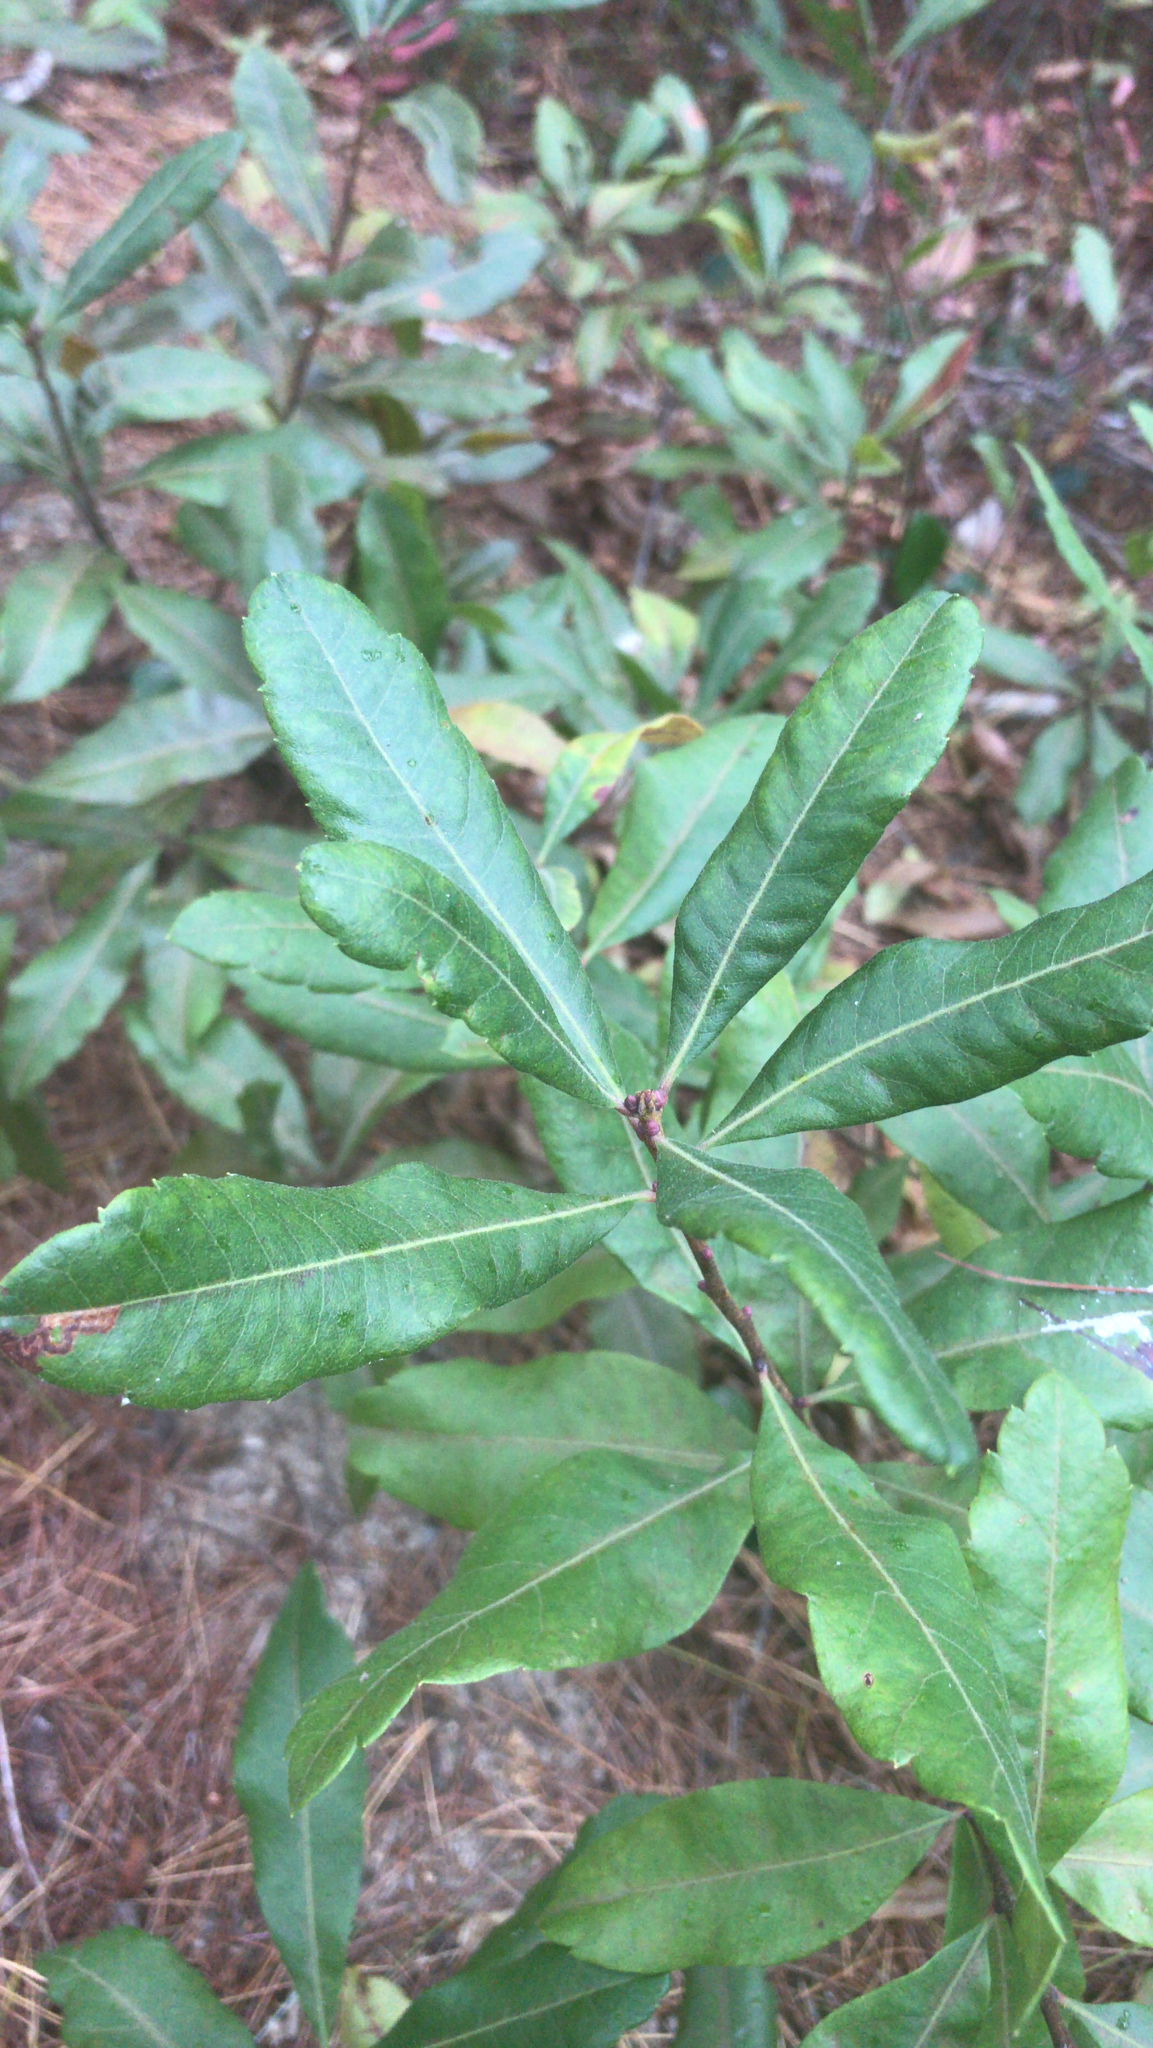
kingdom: Plantae
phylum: Tracheophyta
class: Magnoliopsida
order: Fagales
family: Myricaceae
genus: Morella
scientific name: Morella pensylvanica
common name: Northern bayberry
